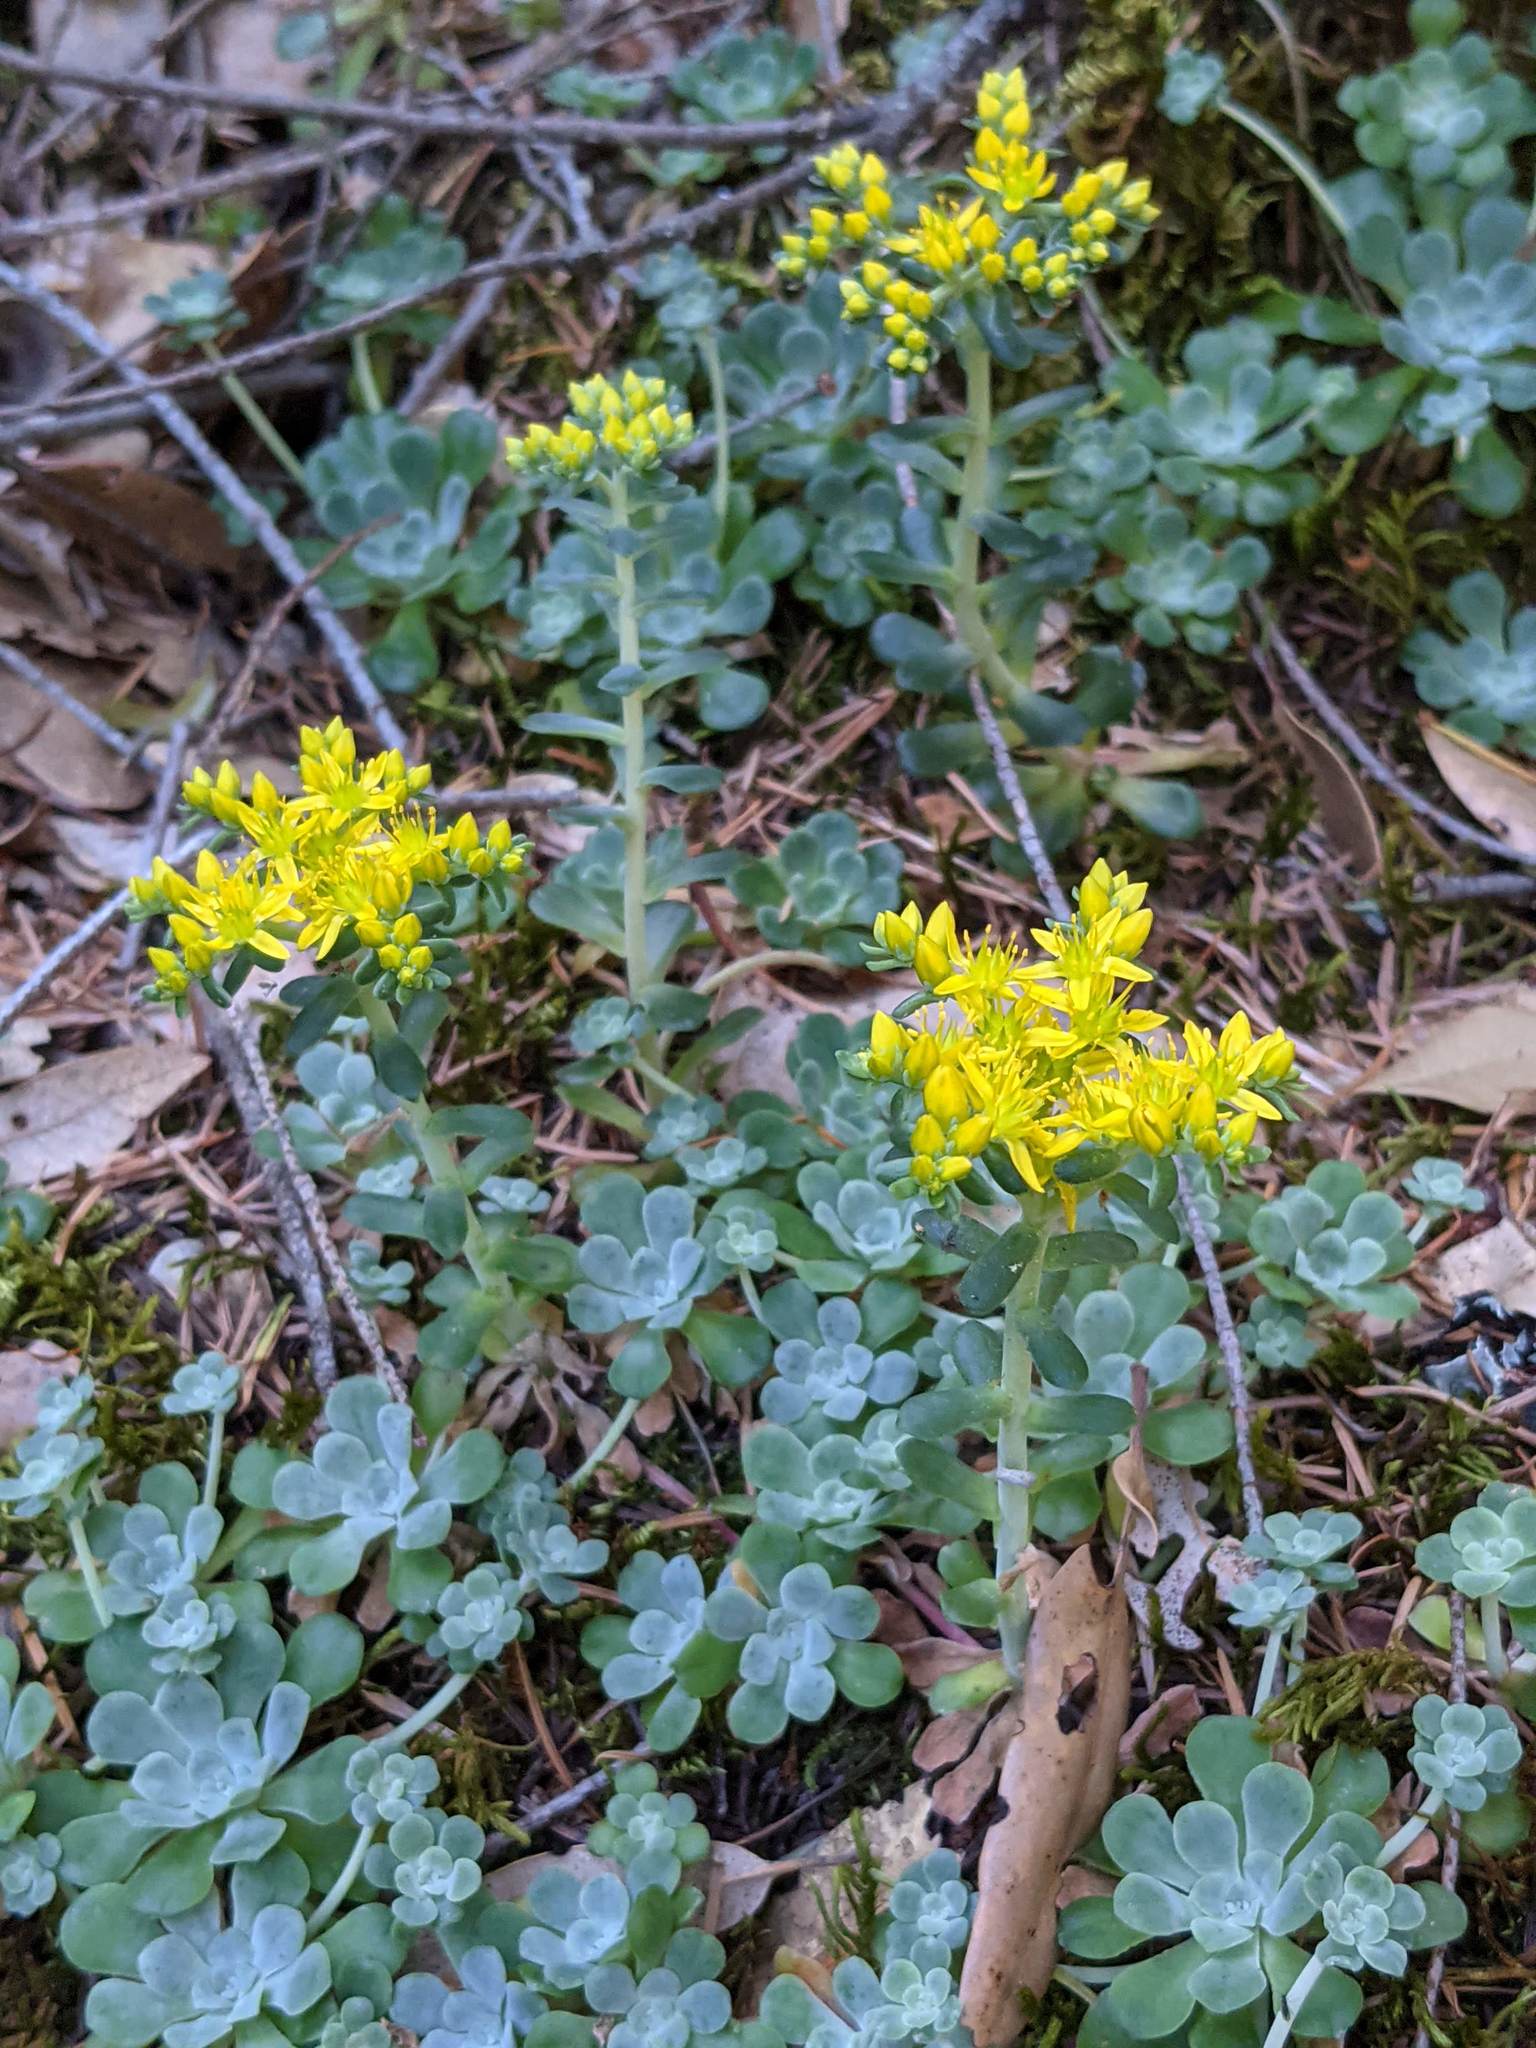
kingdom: Plantae
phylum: Tracheophyta
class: Magnoliopsida
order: Saxifragales
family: Crassulaceae
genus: Sedum
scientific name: Sedum spathulifolium
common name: Colorado stonecrop
